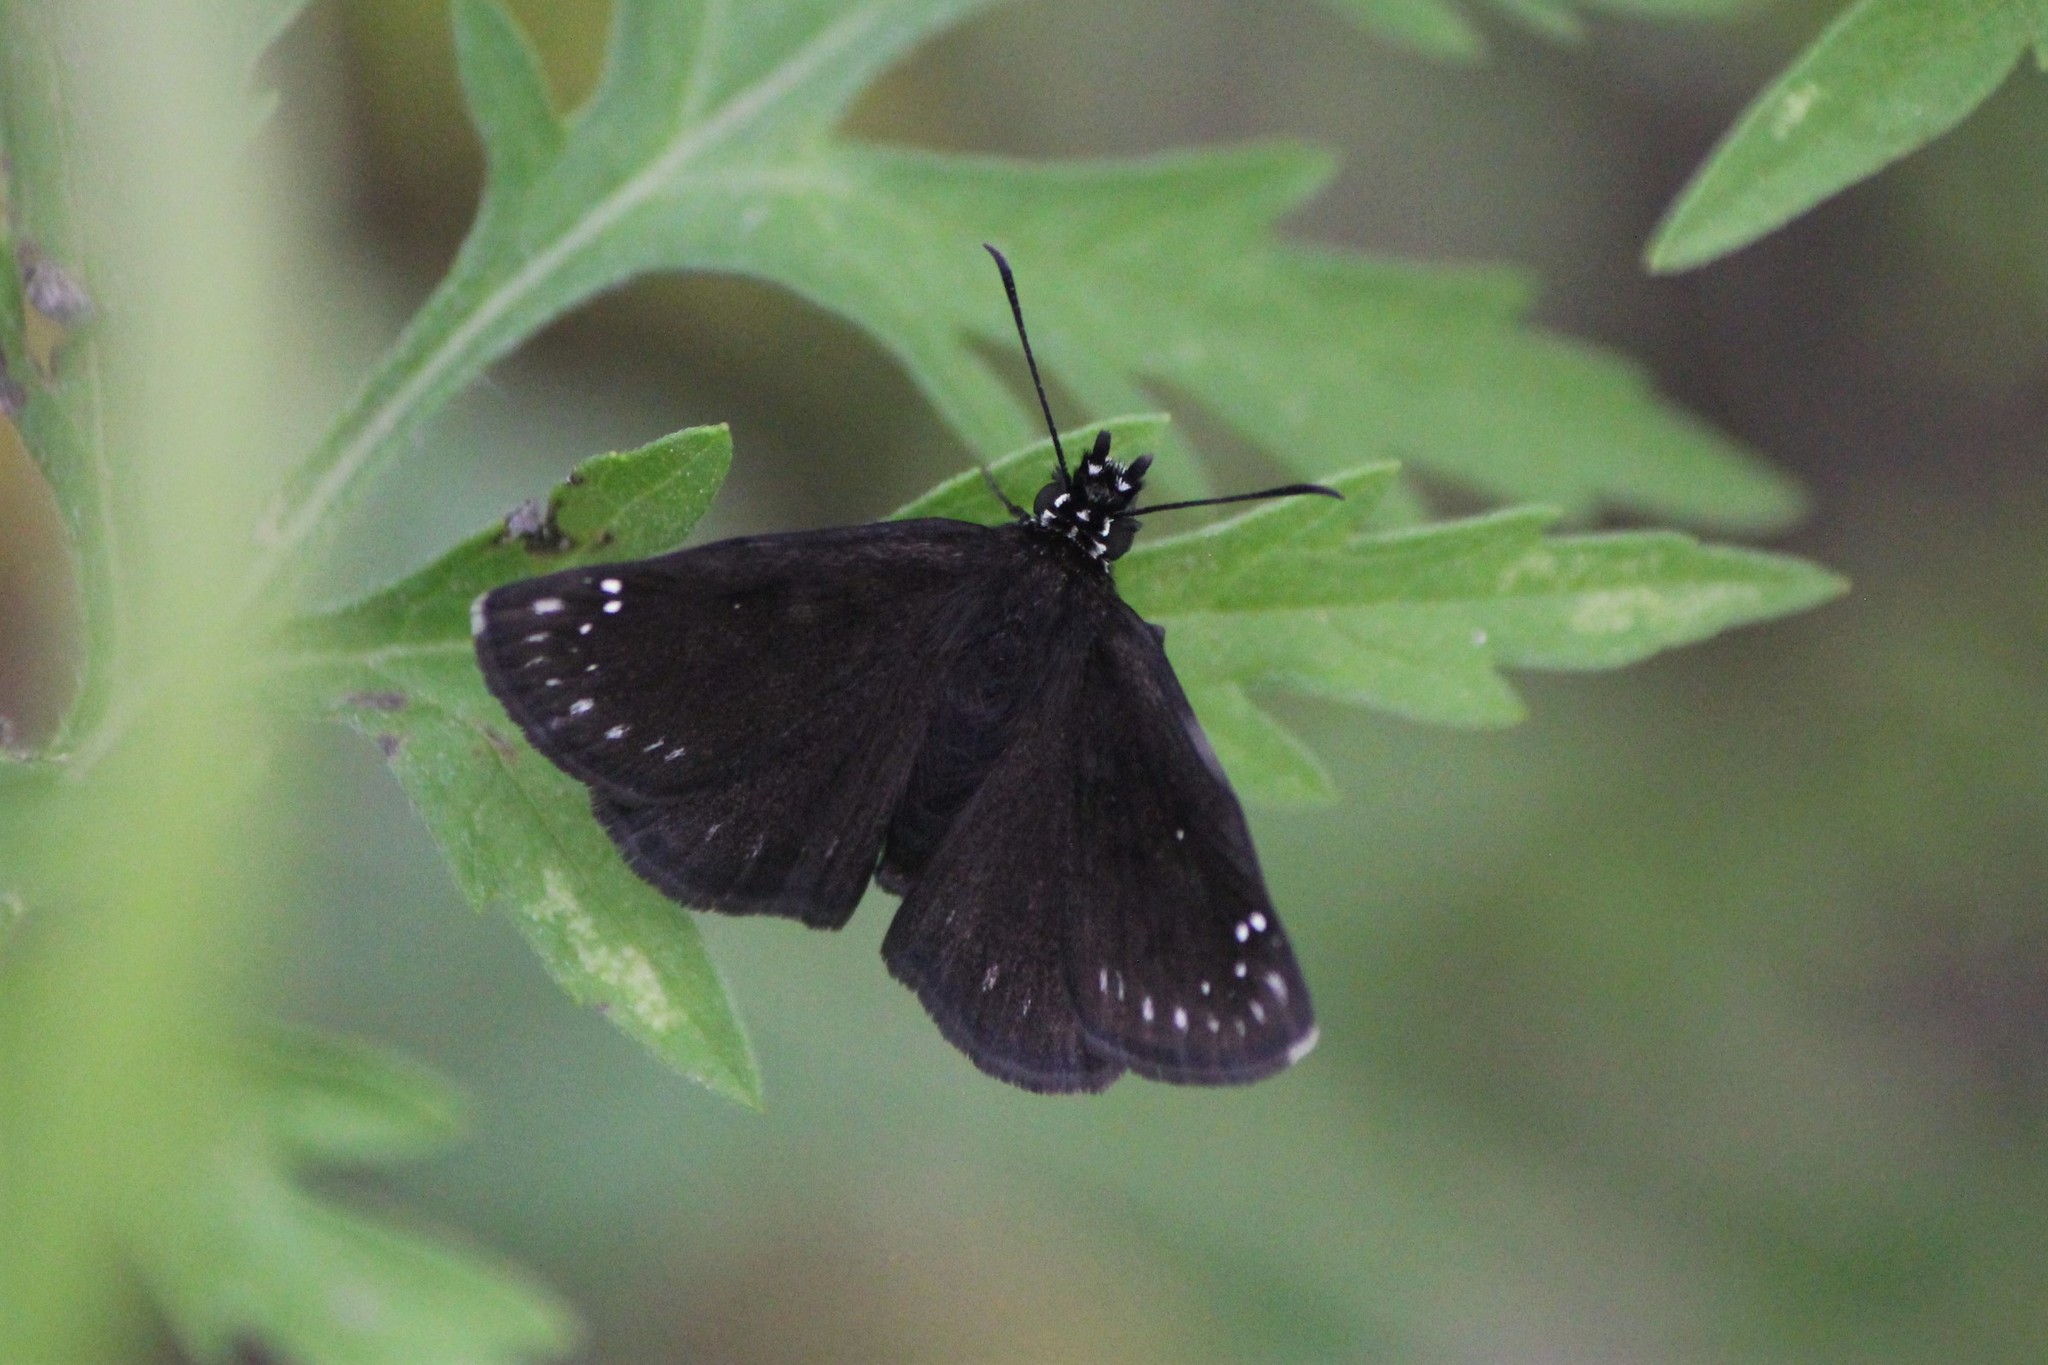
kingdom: Animalia
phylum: Arthropoda
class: Insecta
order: Lepidoptera
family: Hesperiidae
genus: Pholisora
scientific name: Pholisora catullus
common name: Common sootywing
